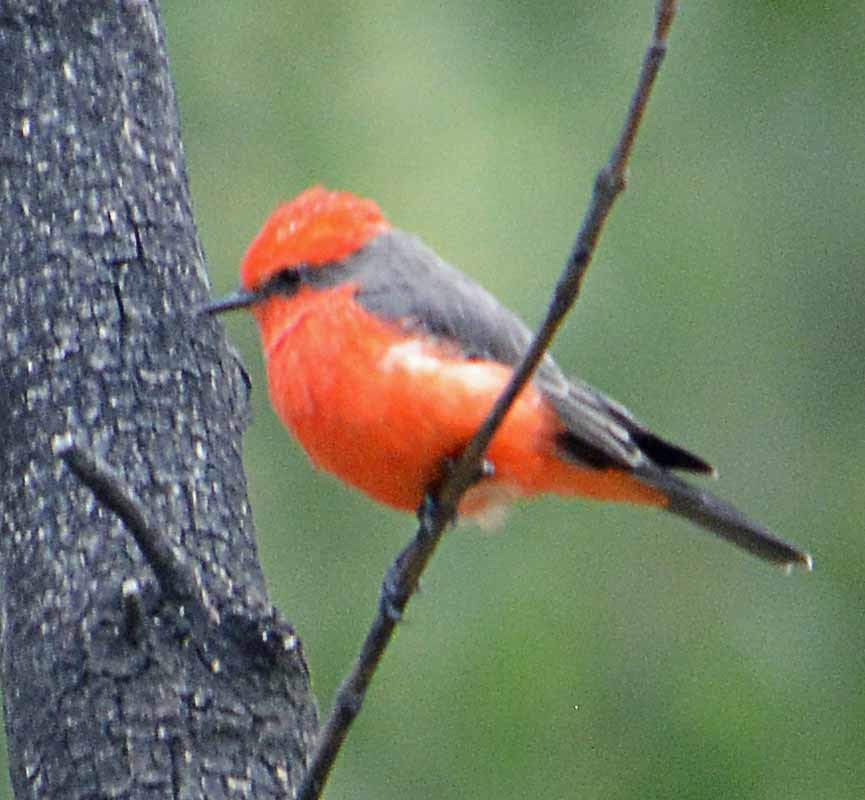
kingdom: Animalia
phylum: Chordata
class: Aves
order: Passeriformes
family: Tyrannidae
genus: Pyrocephalus
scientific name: Pyrocephalus rubinus
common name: Vermilion flycatcher
